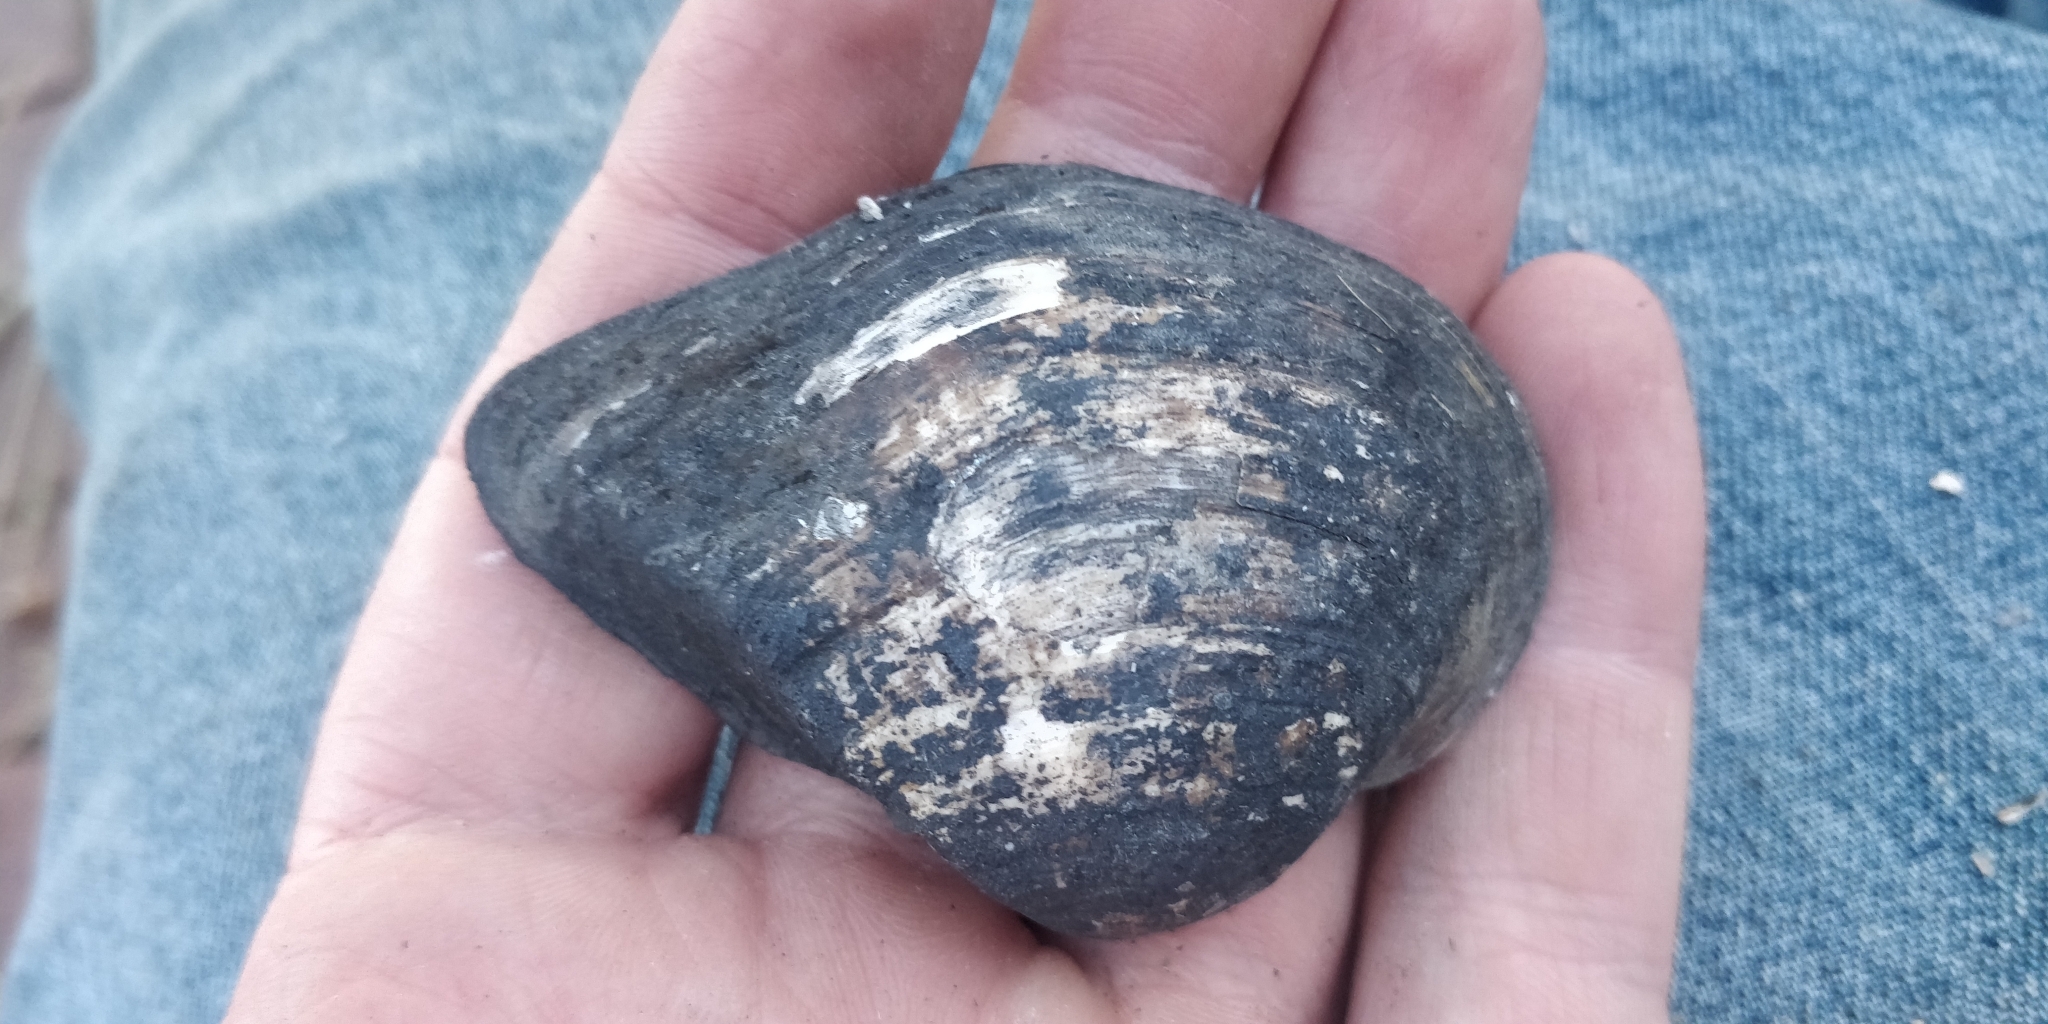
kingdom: Animalia
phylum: Mollusca
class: Bivalvia
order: Unionida
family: Unionidae
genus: Truncilla
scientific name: Truncilla truncata
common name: Deertoe
